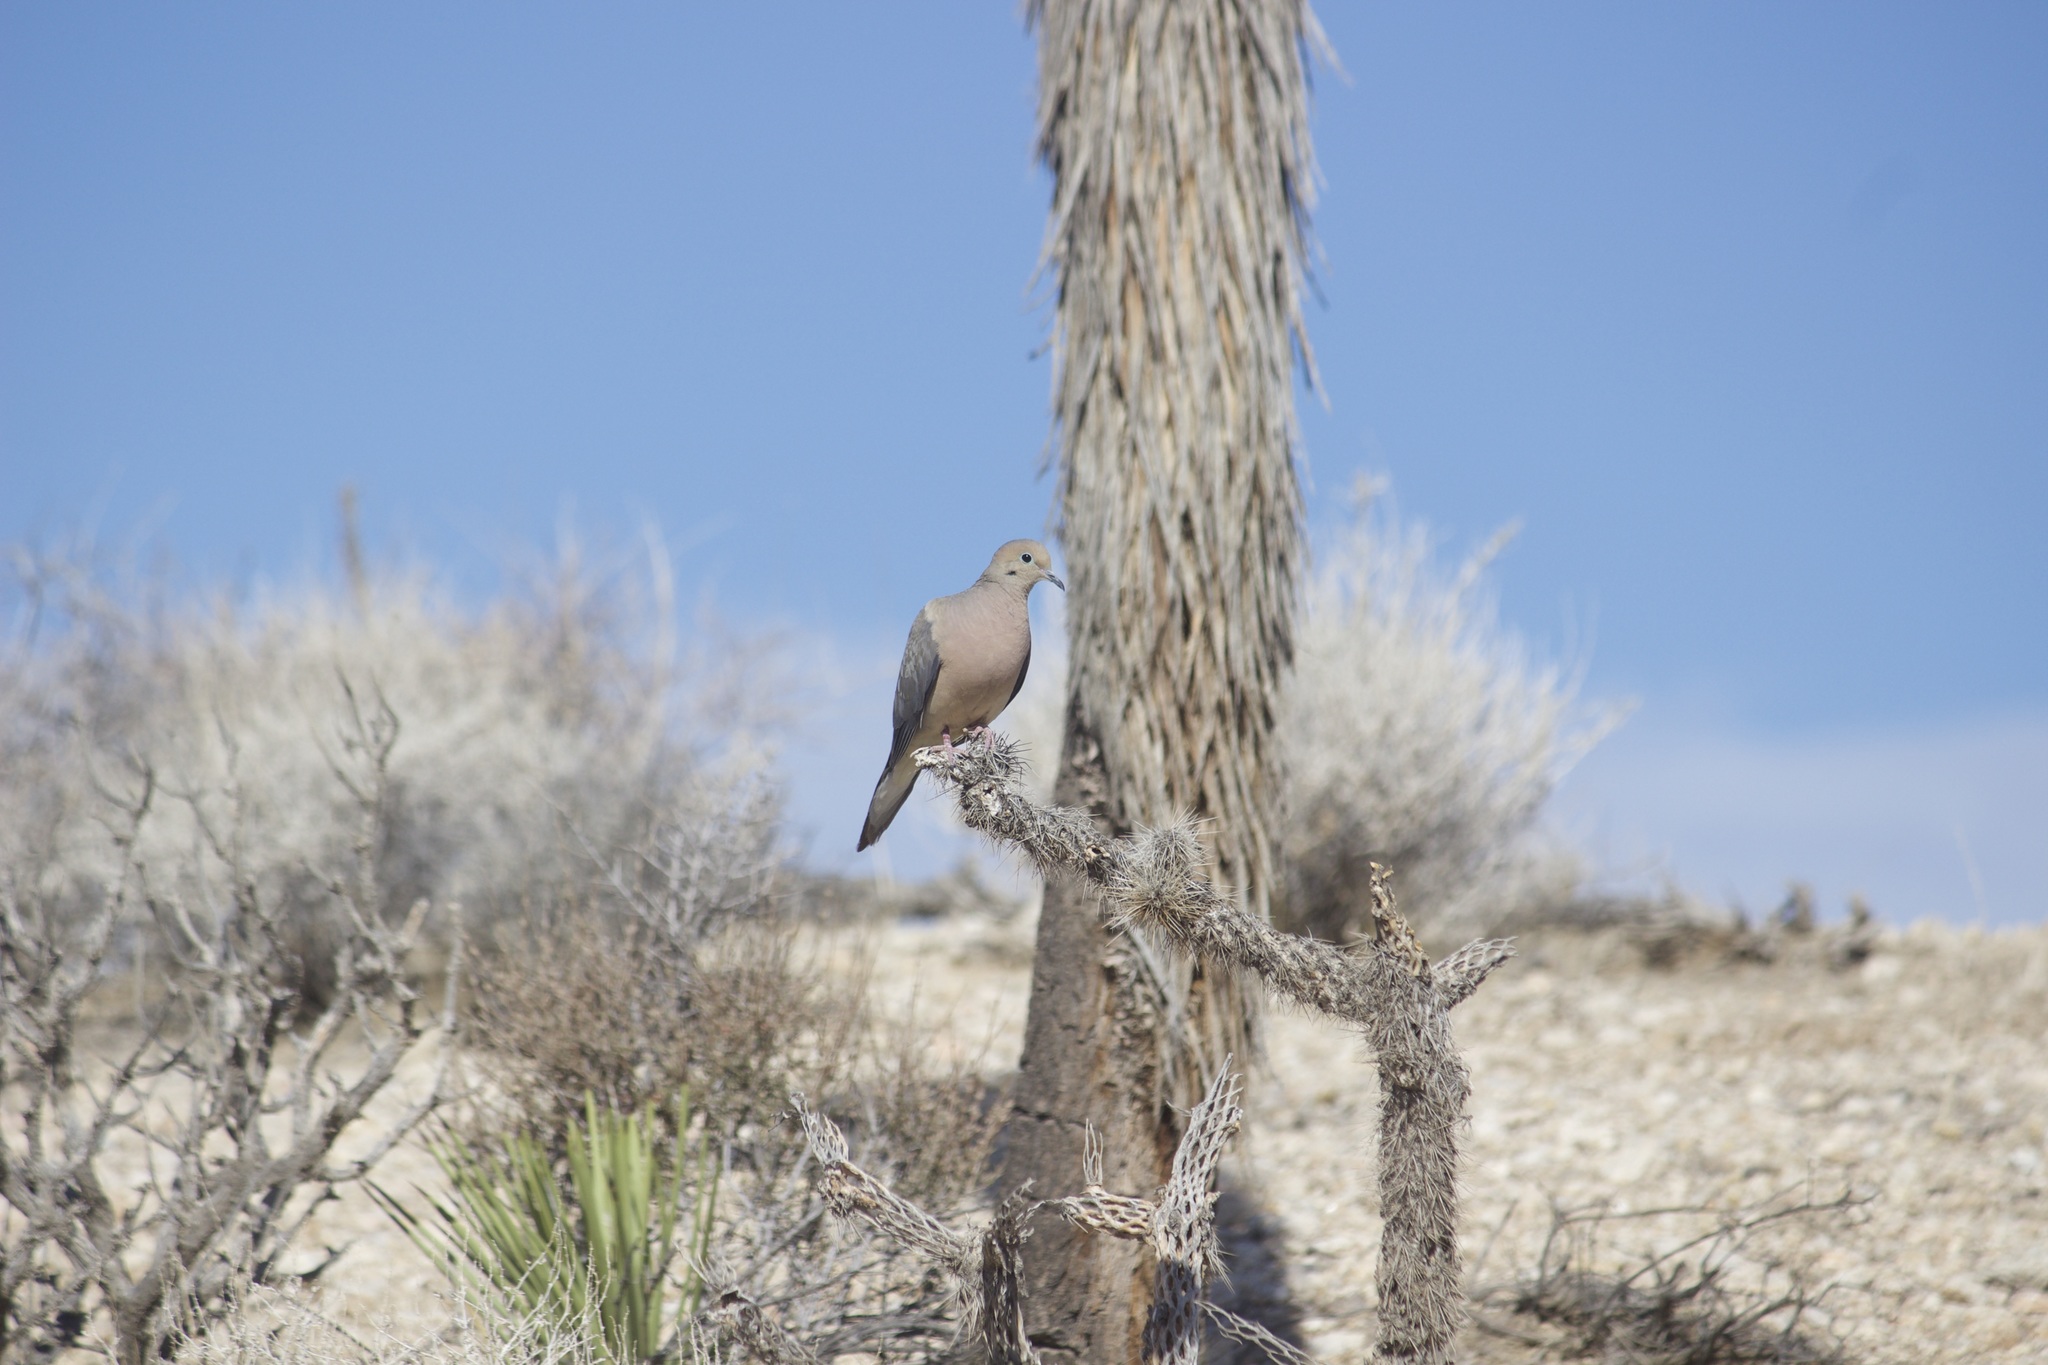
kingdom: Animalia
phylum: Chordata
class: Aves
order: Columbiformes
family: Columbidae
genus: Zenaida
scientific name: Zenaida macroura
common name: Mourning dove
